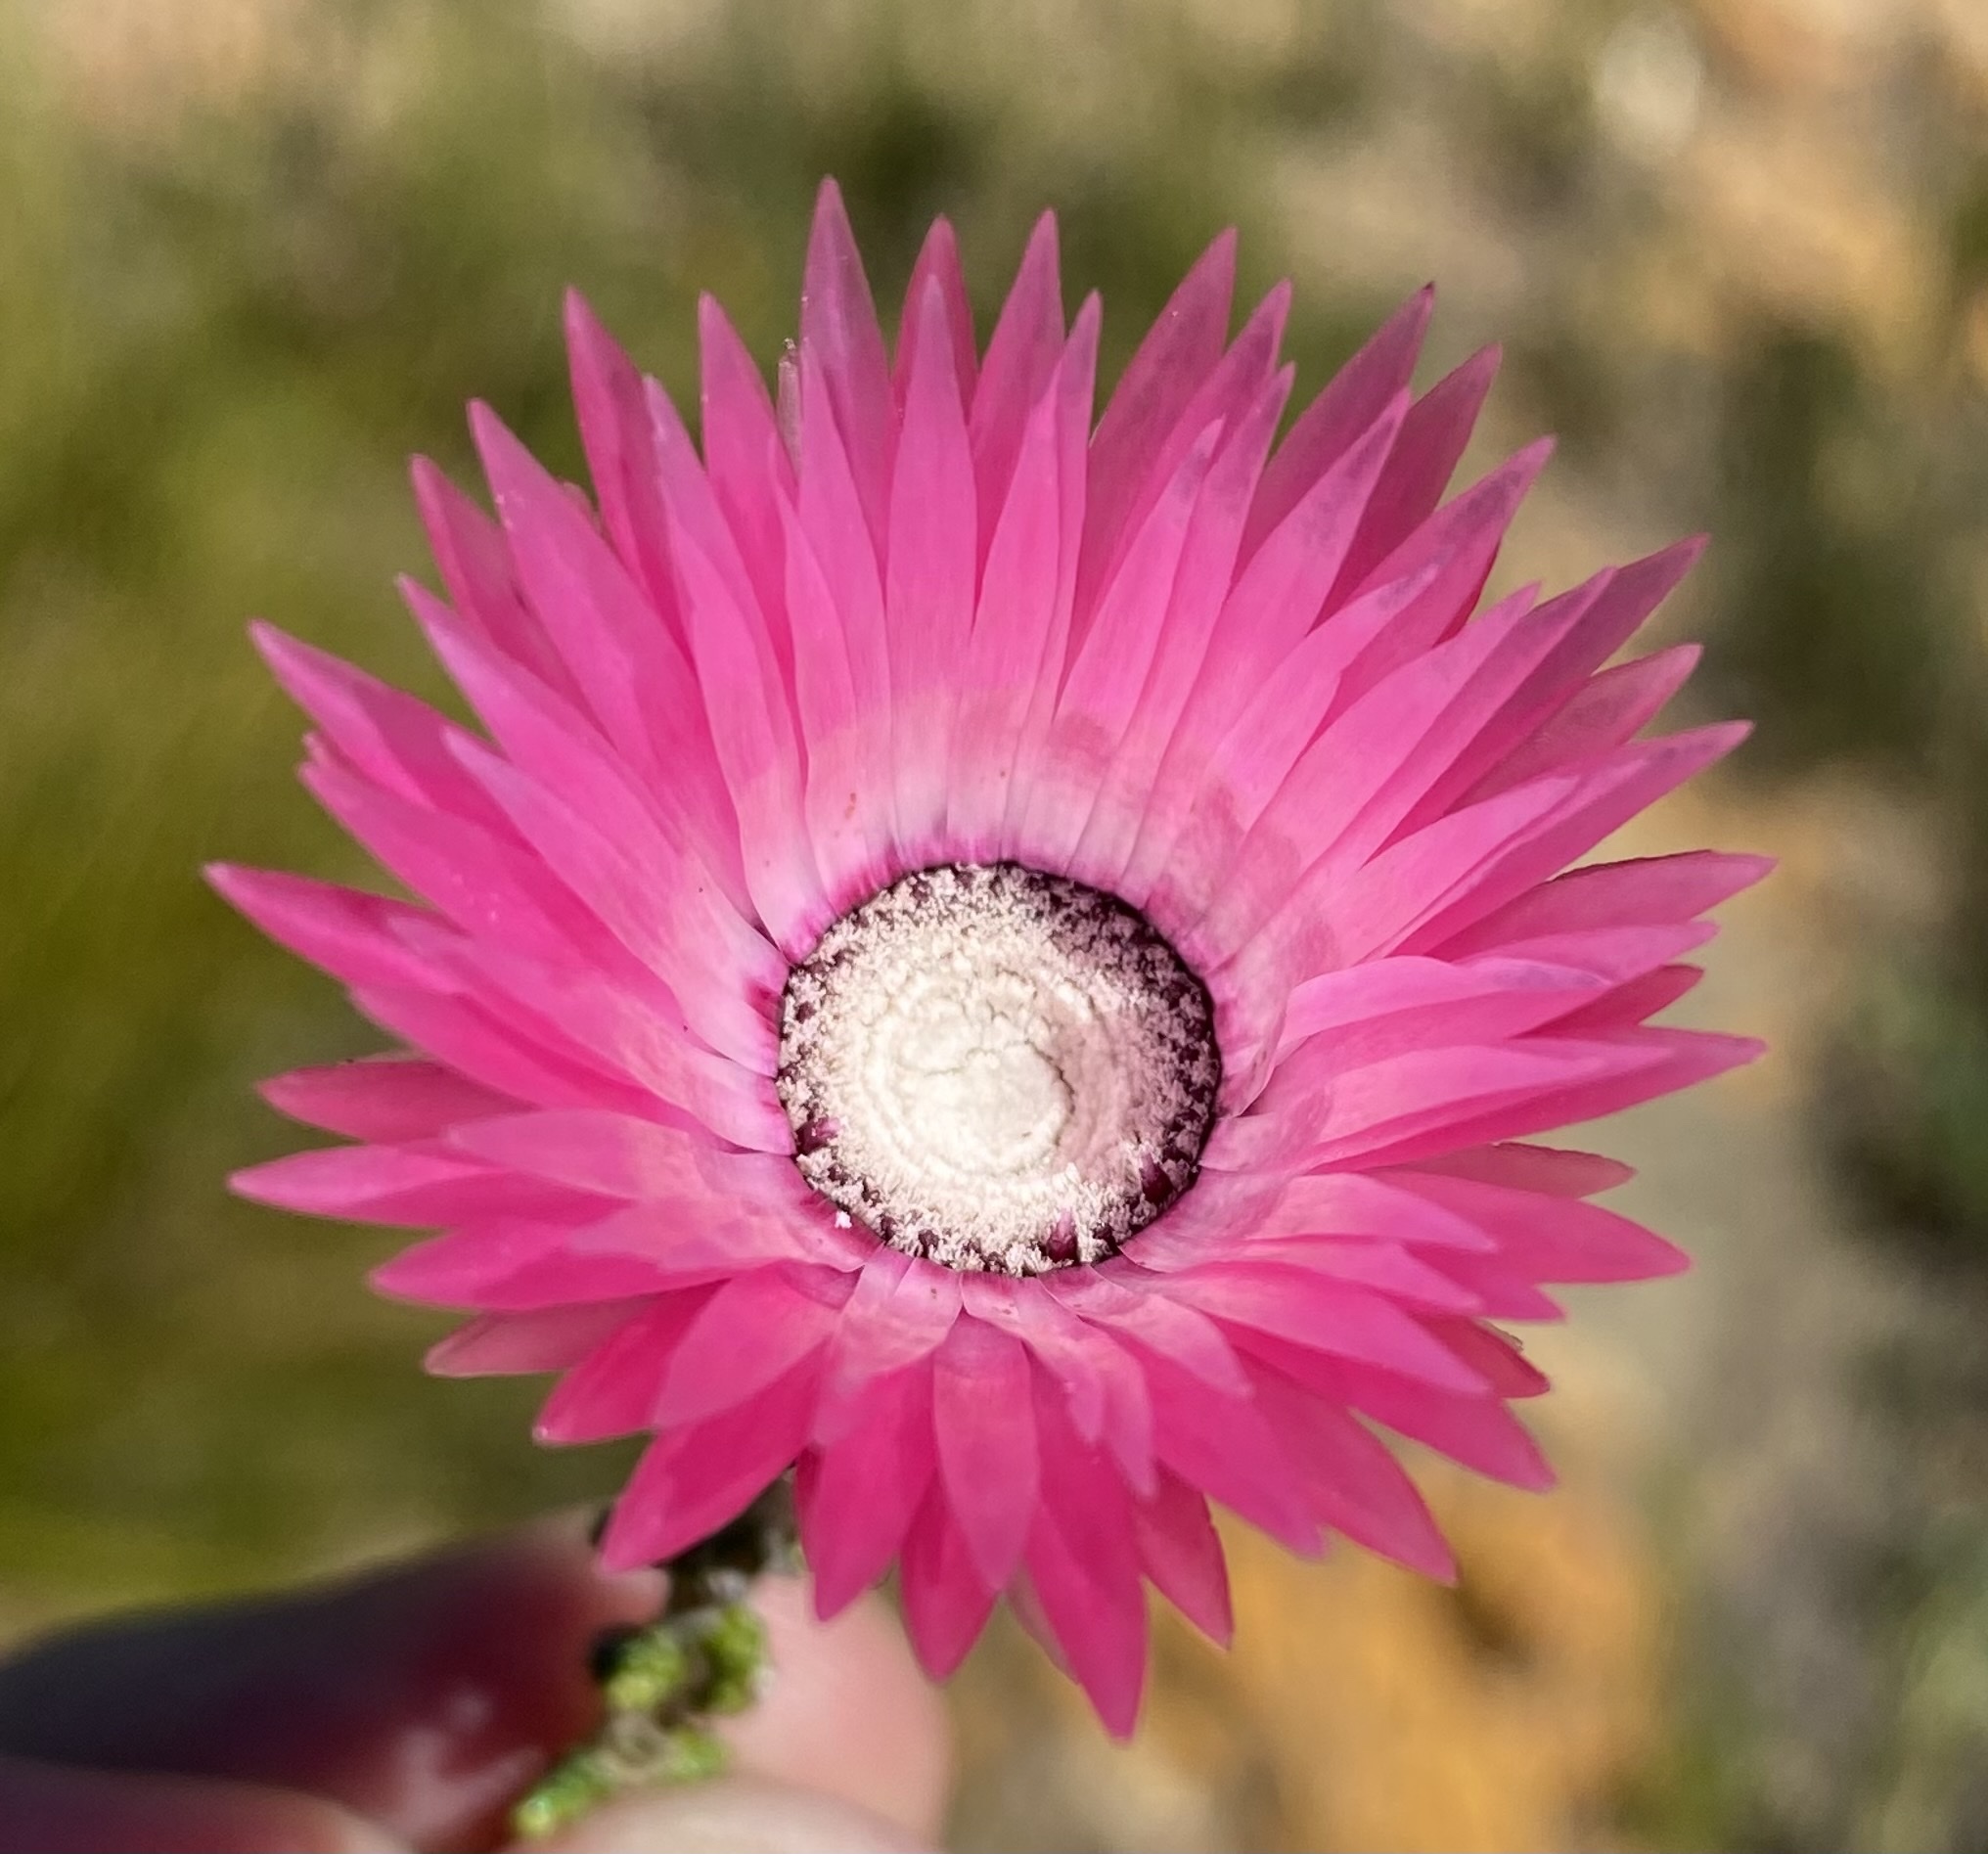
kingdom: Plantae
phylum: Tracheophyta
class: Magnoliopsida
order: Asterales
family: Asteraceae
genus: Phaenocoma
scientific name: Phaenocoma prolifera
